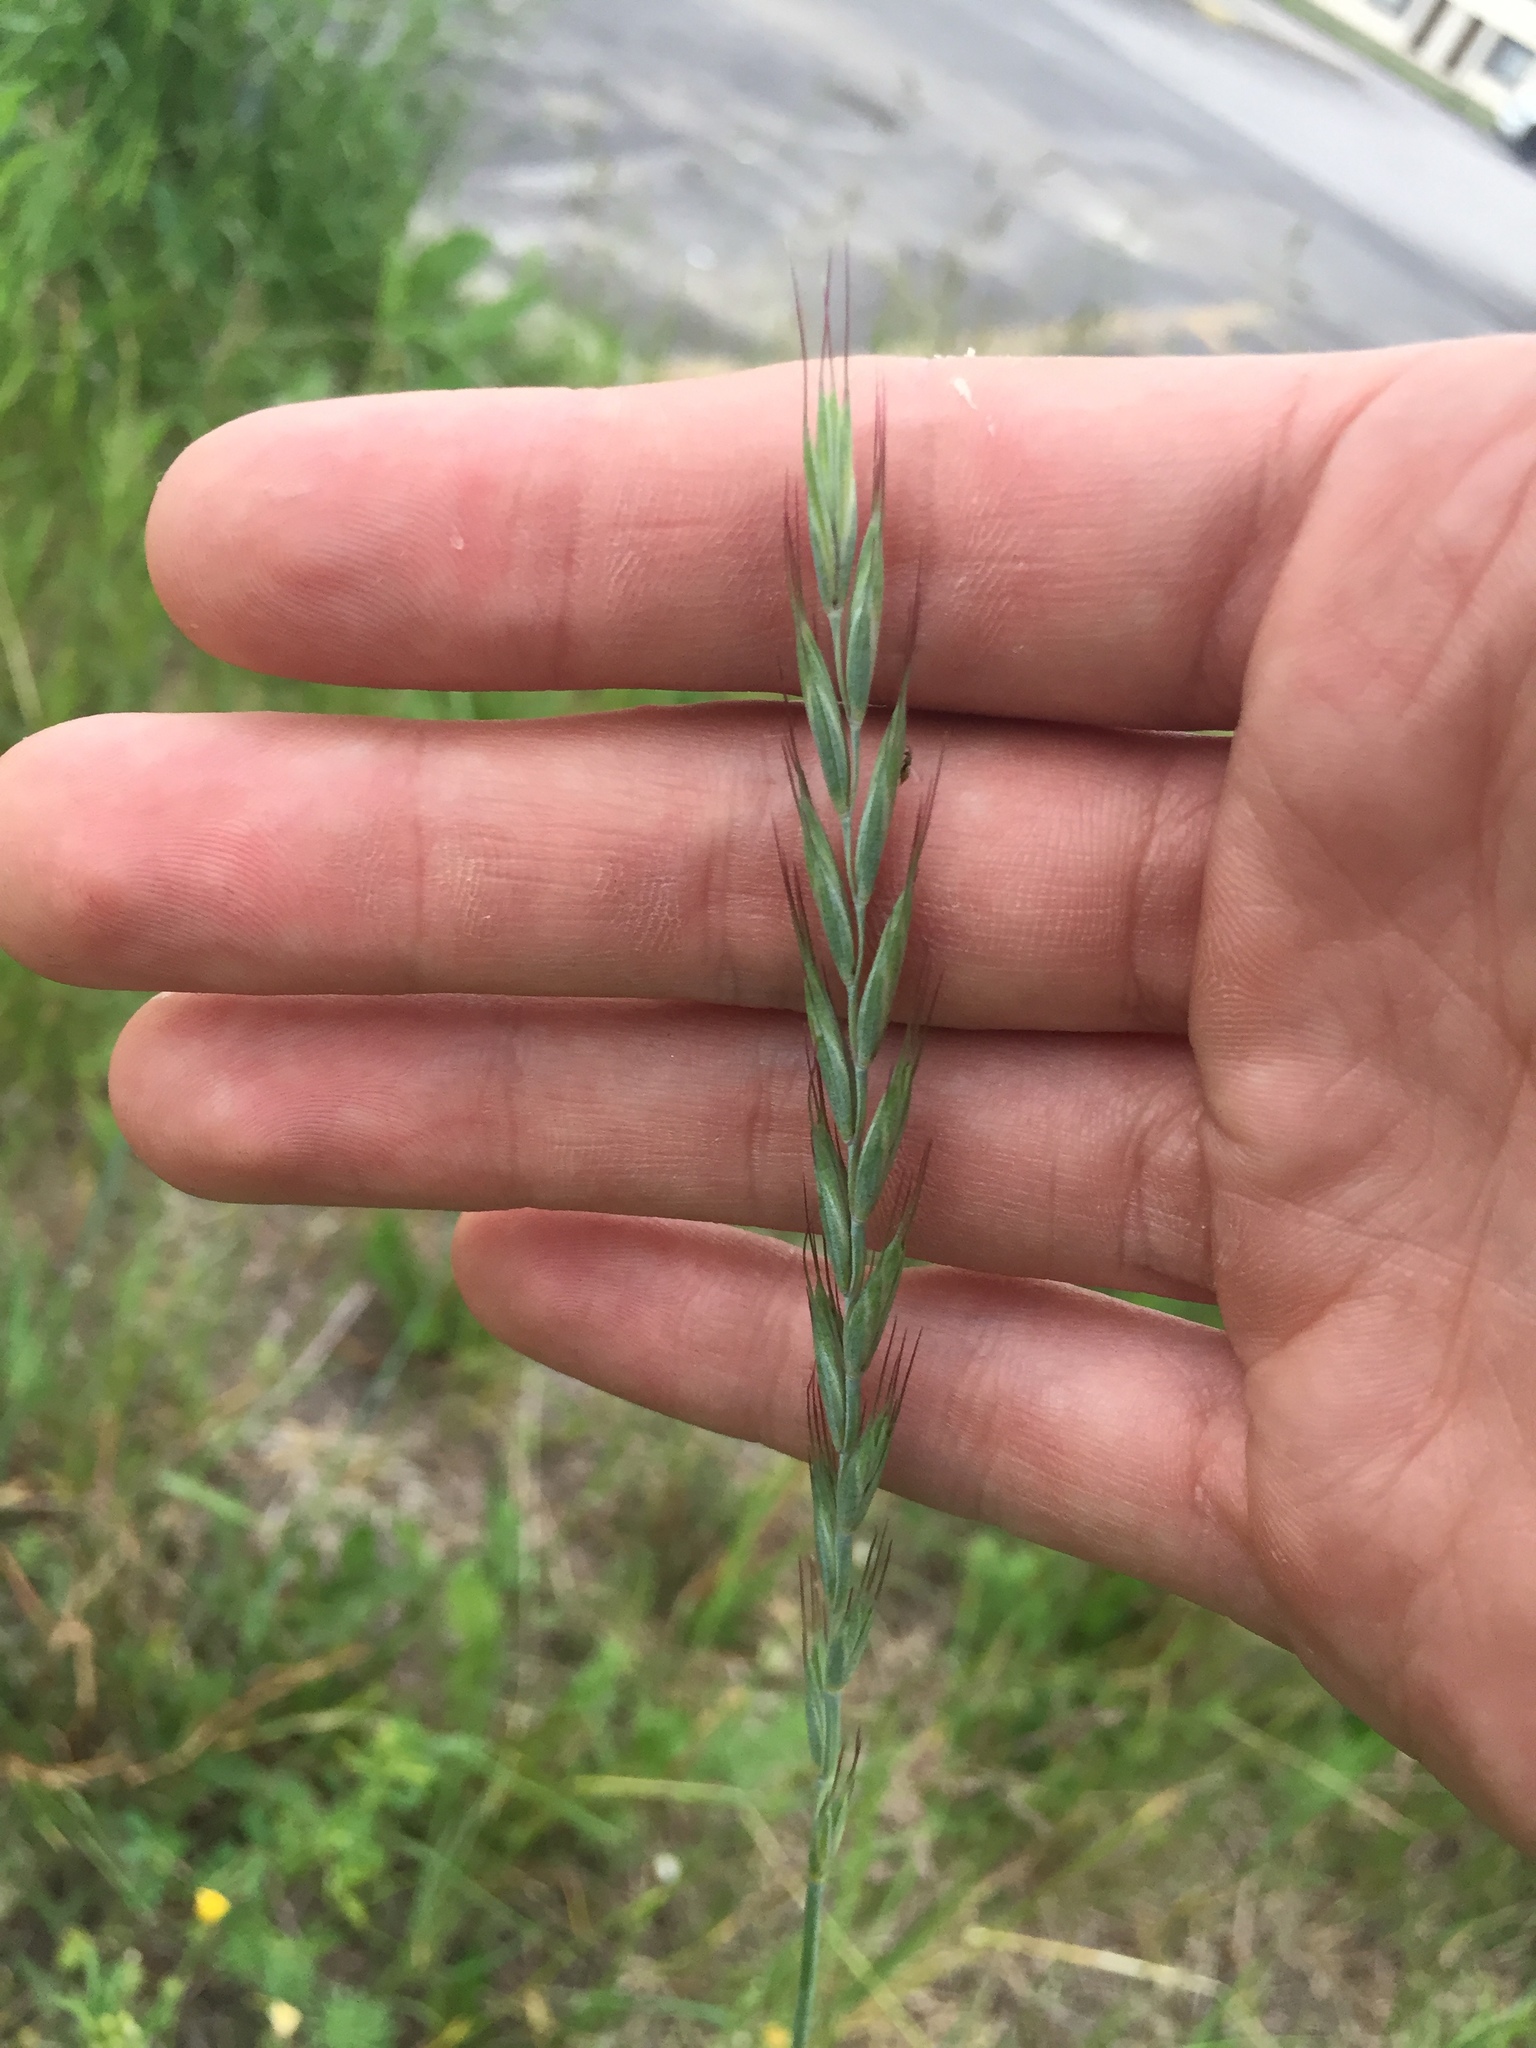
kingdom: Plantae
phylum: Tracheophyta
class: Liliopsida
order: Poales
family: Poaceae
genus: Elymus
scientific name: Elymus repens
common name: Quackgrass
